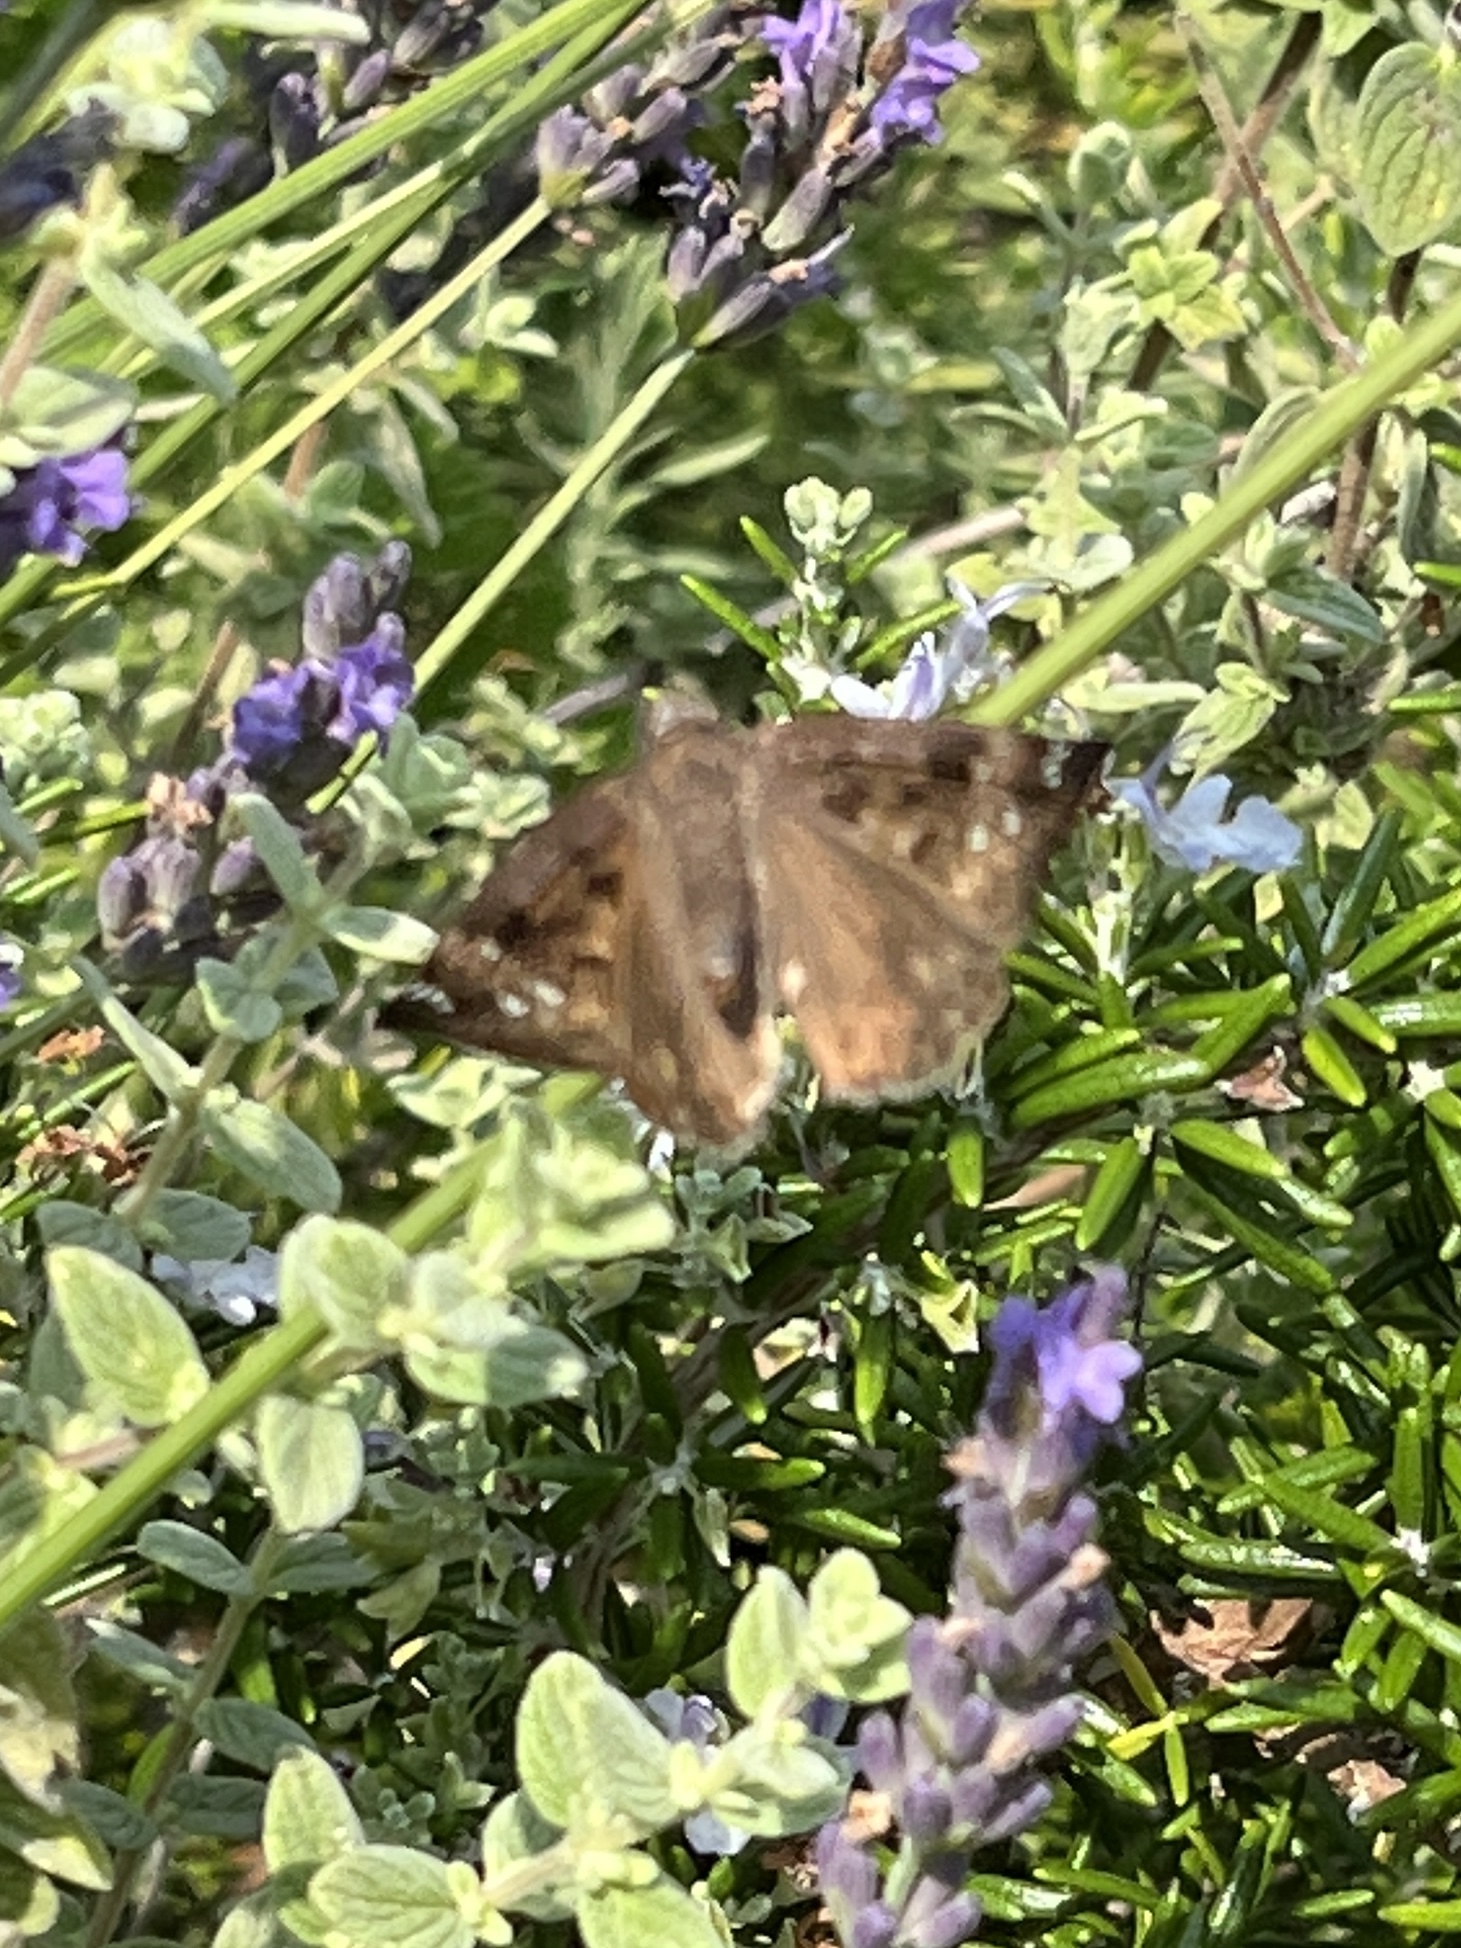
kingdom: Animalia
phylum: Arthropoda
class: Insecta
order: Lepidoptera
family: Hesperiidae
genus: Erynnis
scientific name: Erynnis horatius
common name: Horace's duskywing
